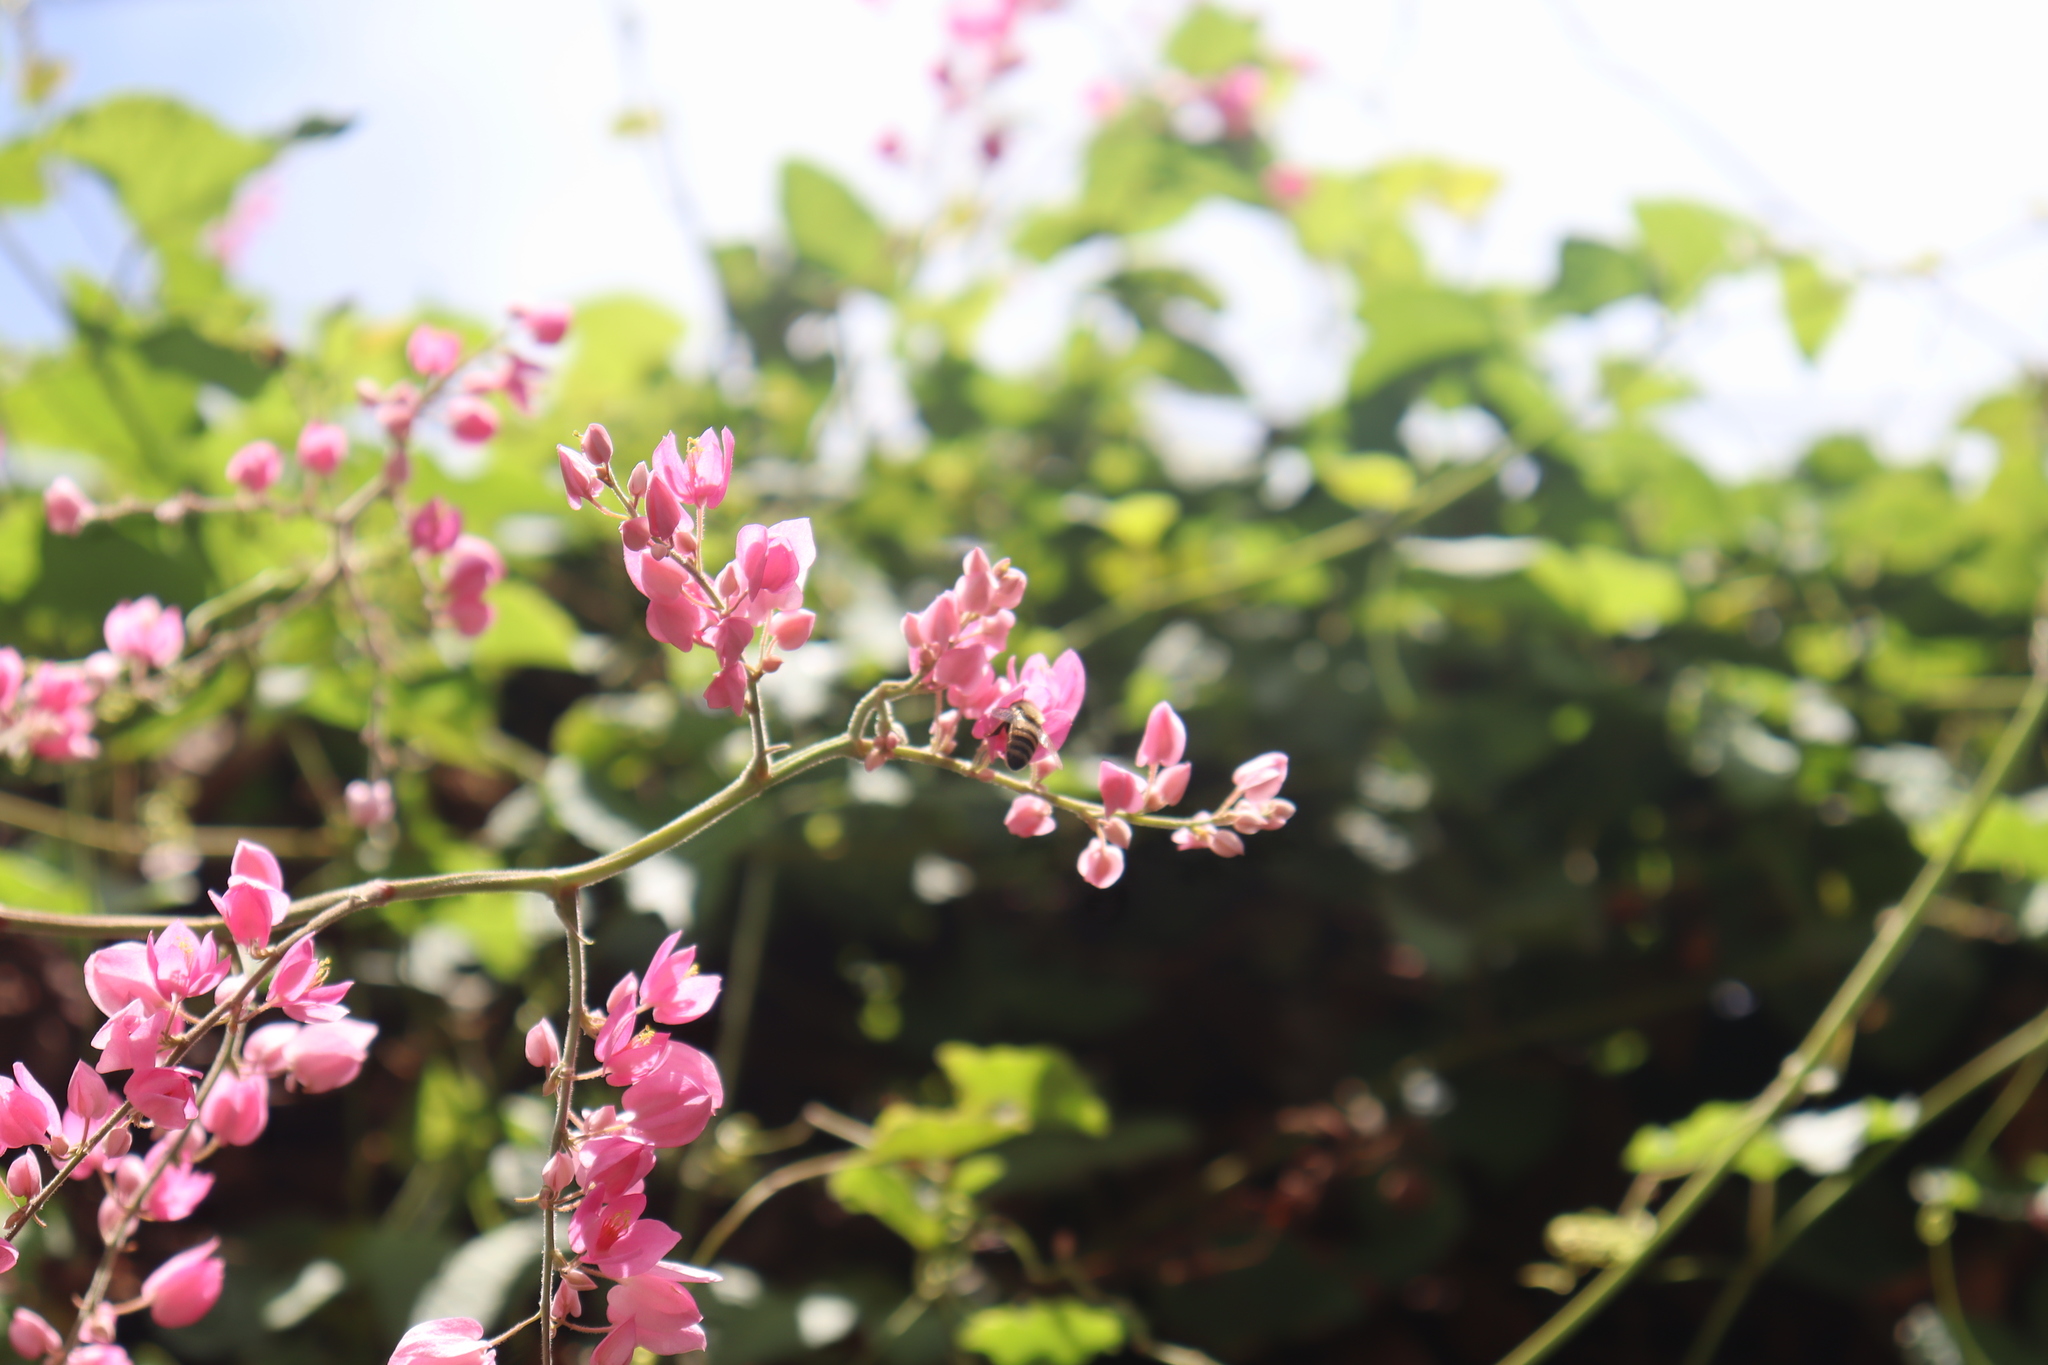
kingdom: Animalia
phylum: Arthropoda
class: Insecta
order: Hymenoptera
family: Apidae
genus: Apis
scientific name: Apis mellifera
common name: Honey bee
